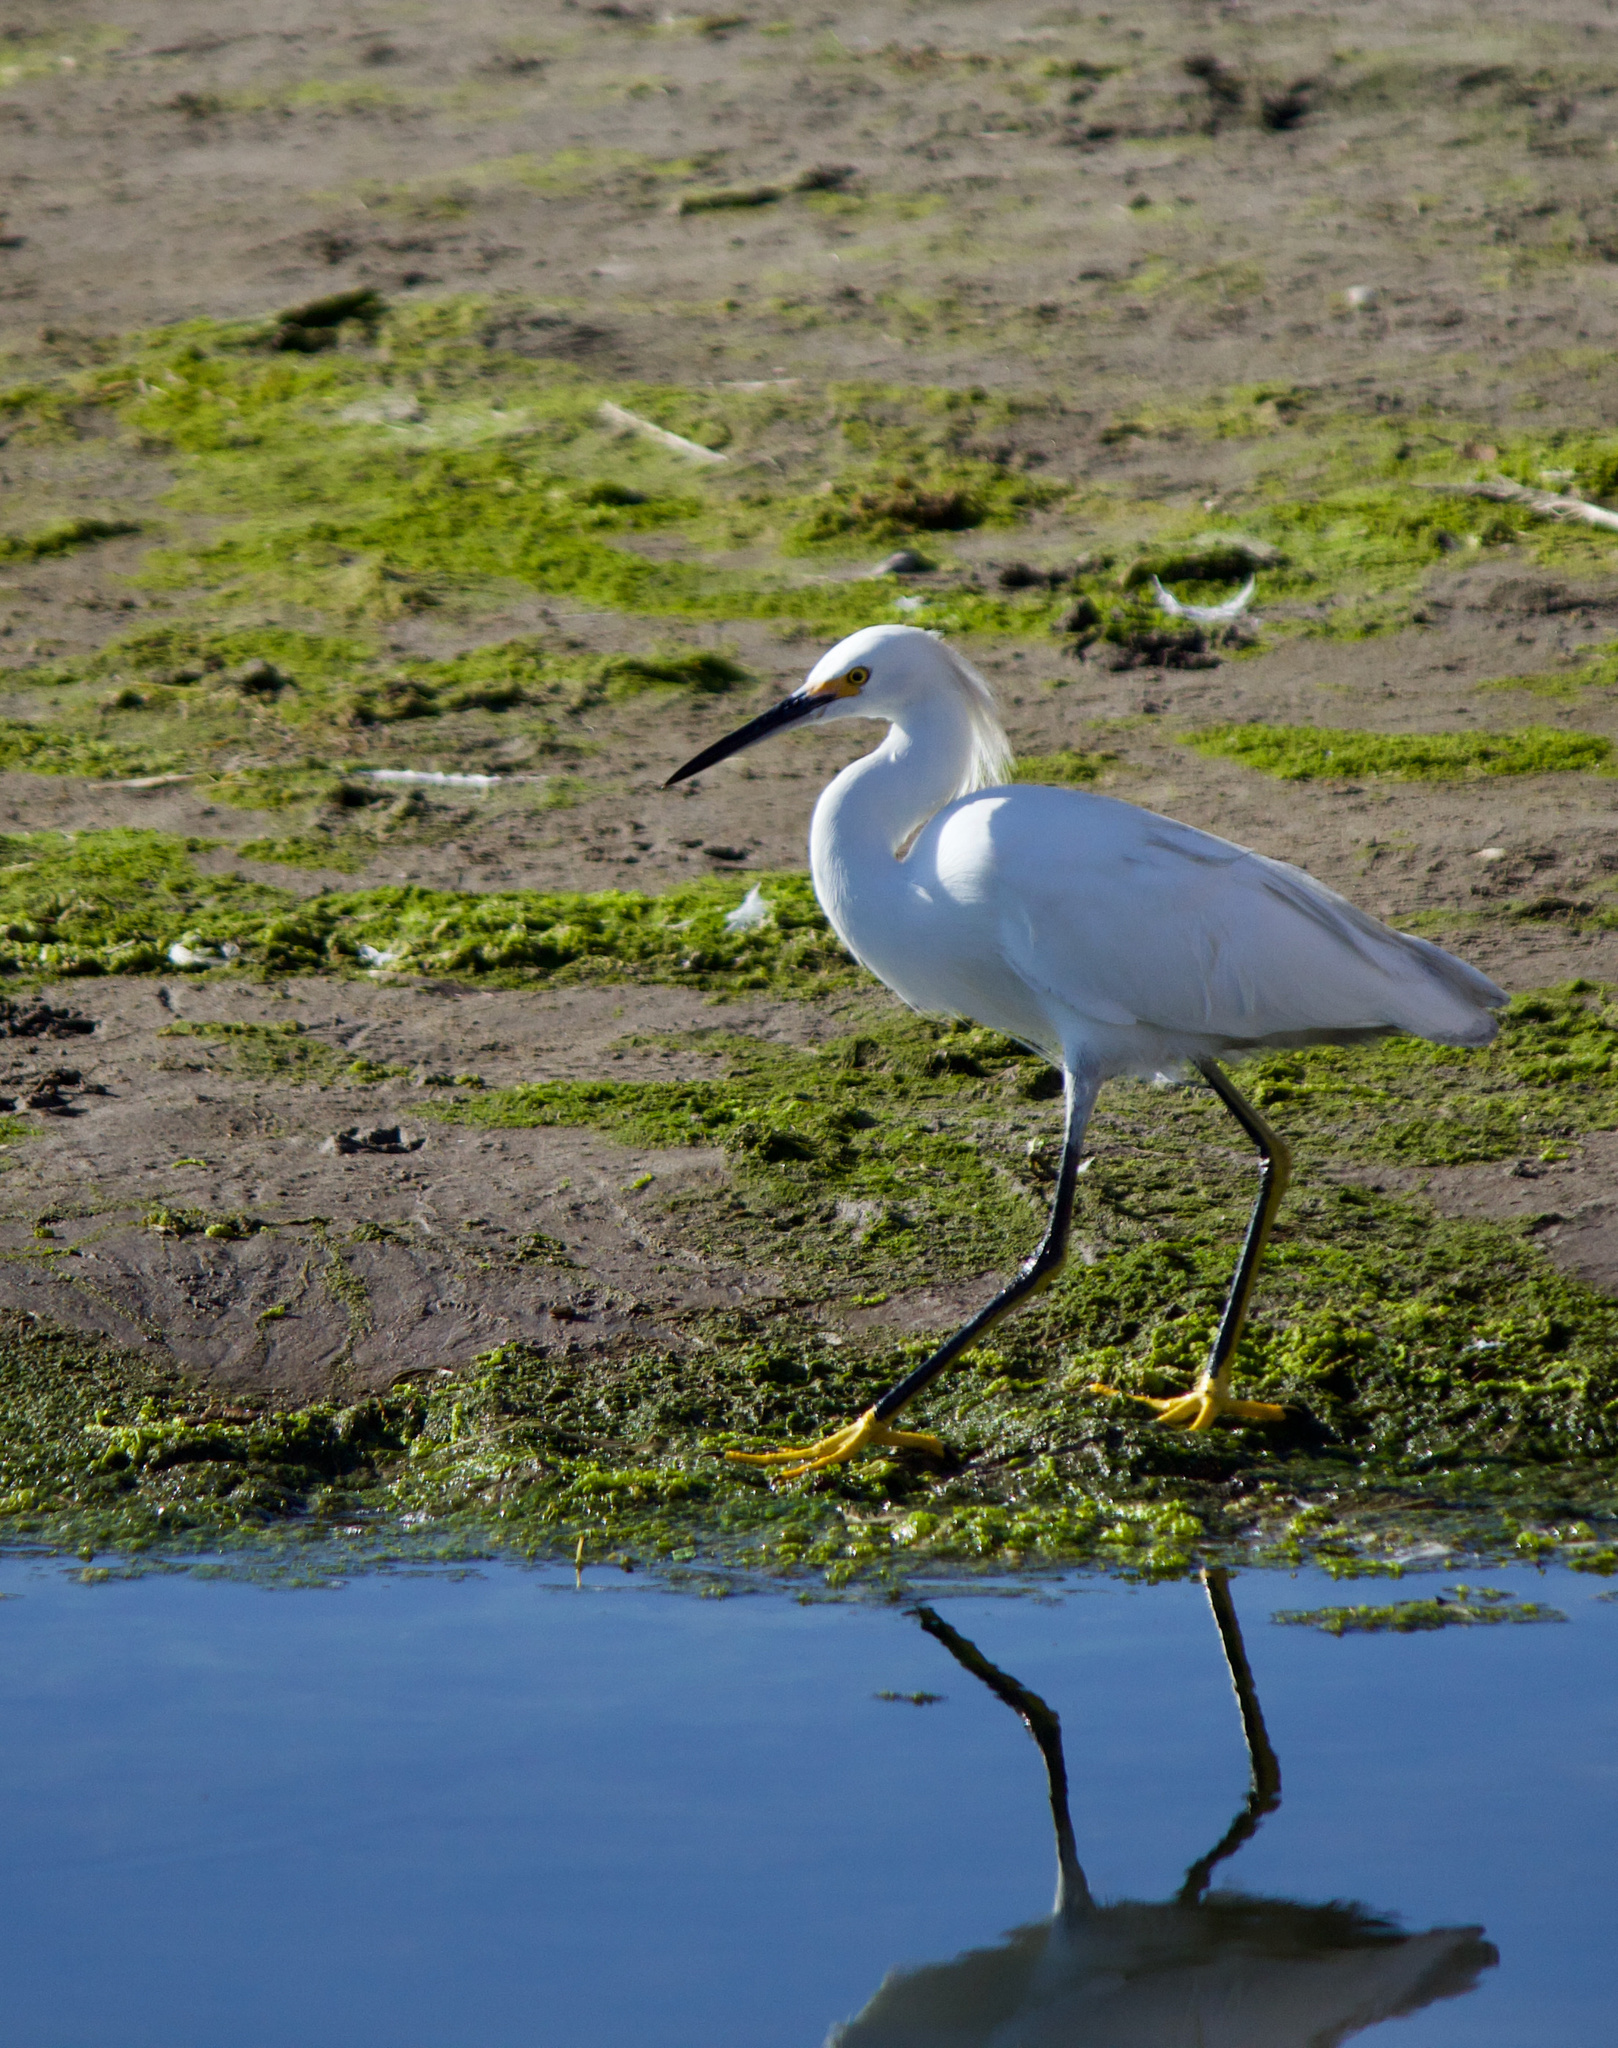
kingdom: Animalia
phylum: Chordata
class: Aves
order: Pelecaniformes
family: Ardeidae
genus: Egretta
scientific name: Egretta thula
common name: Snowy egret
